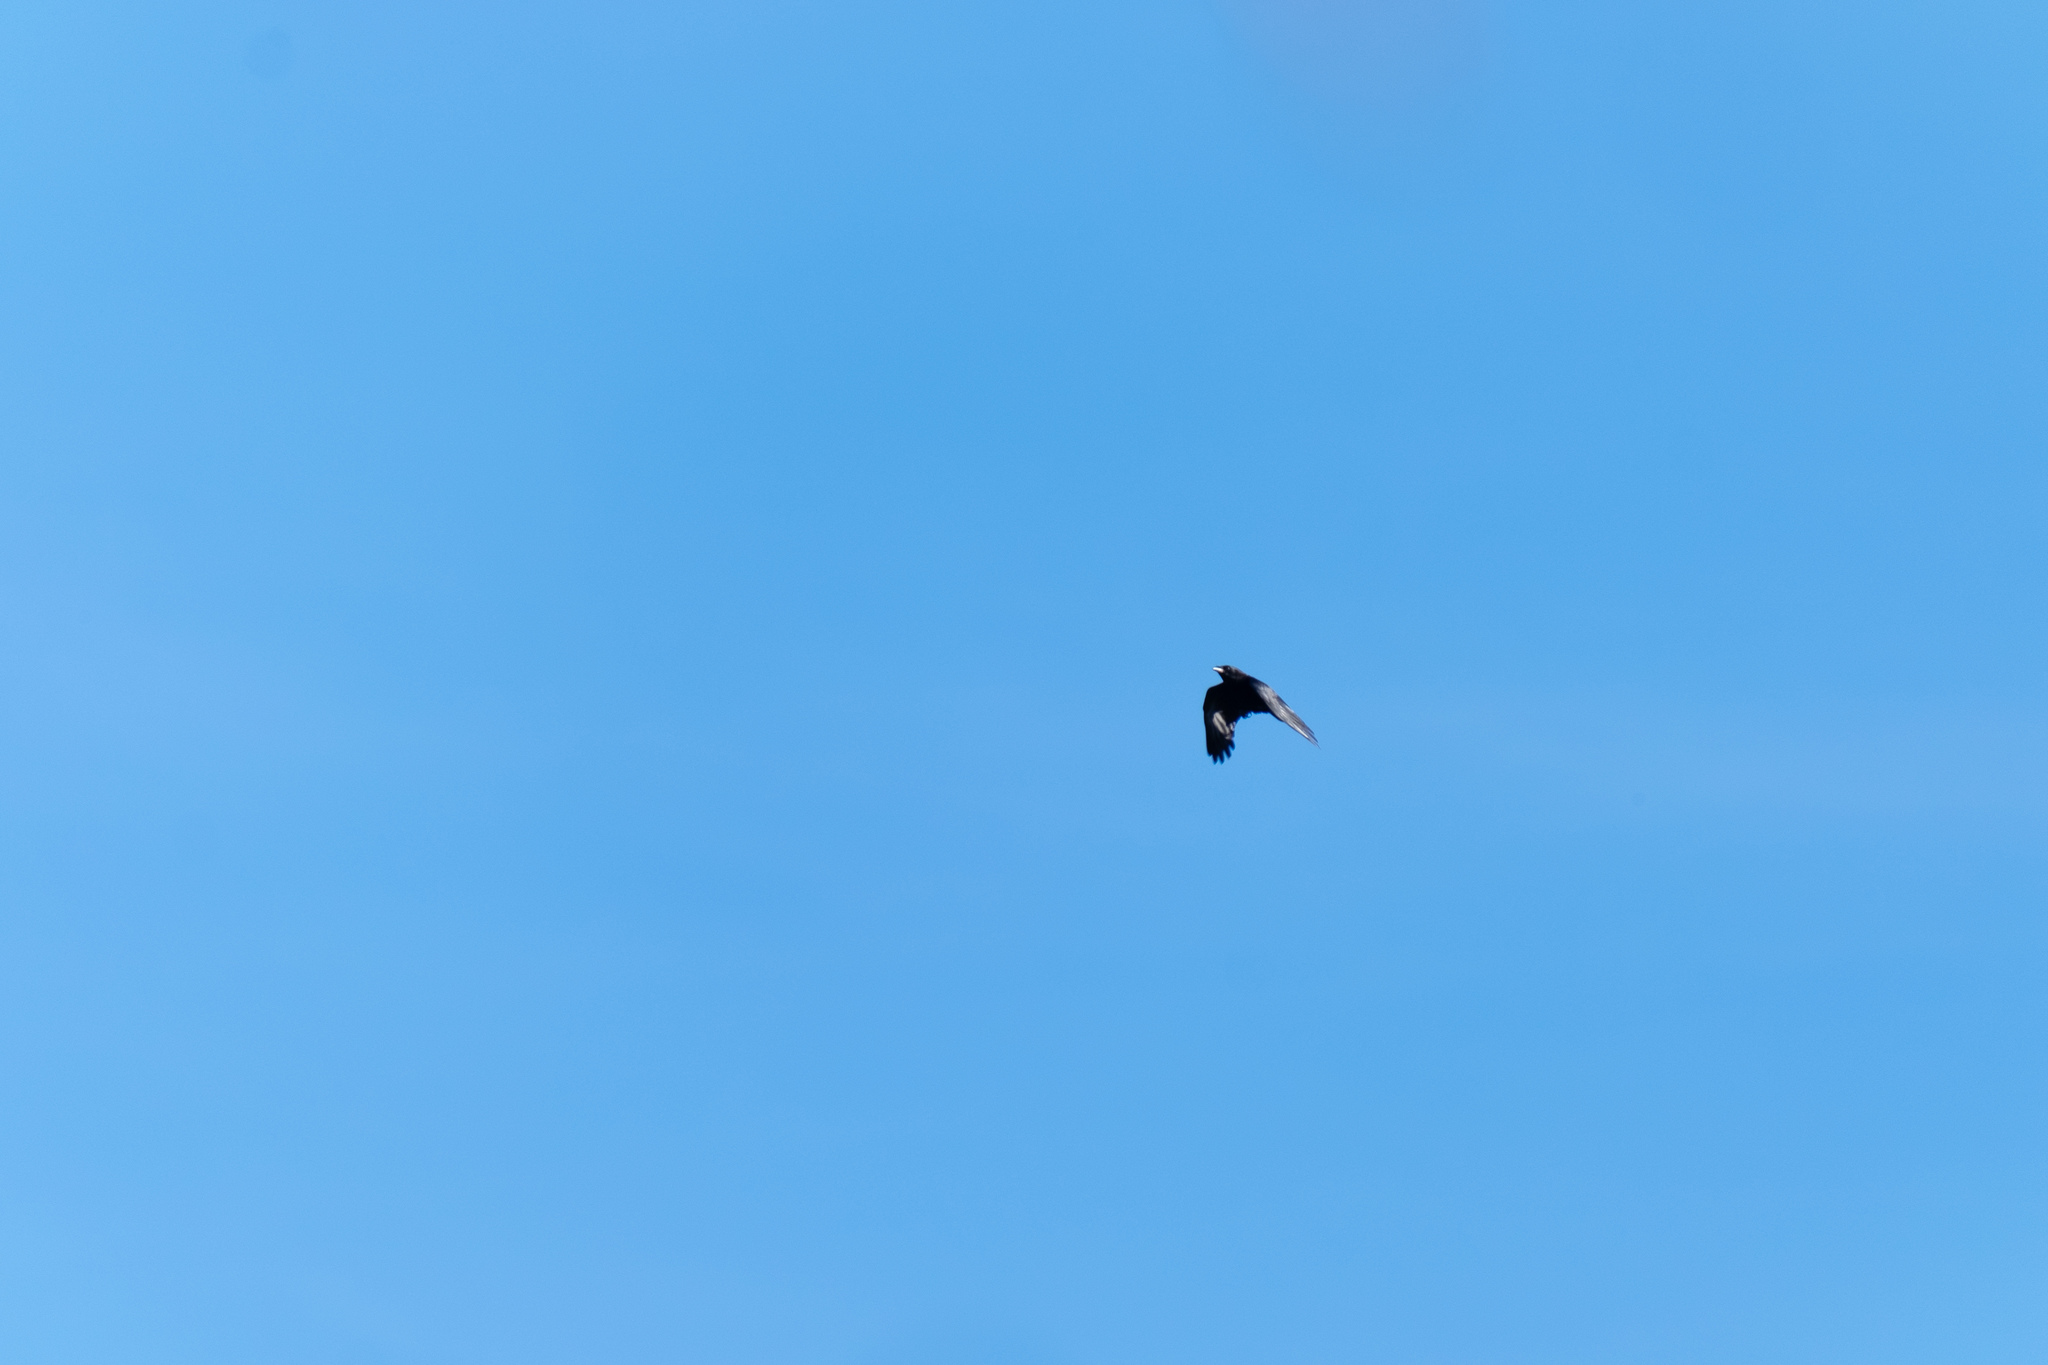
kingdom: Animalia
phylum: Chordata
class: Aves
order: Passeriformes
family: Corvidae
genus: Corvus
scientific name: Corvus brachyrhynchos
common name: American crow
